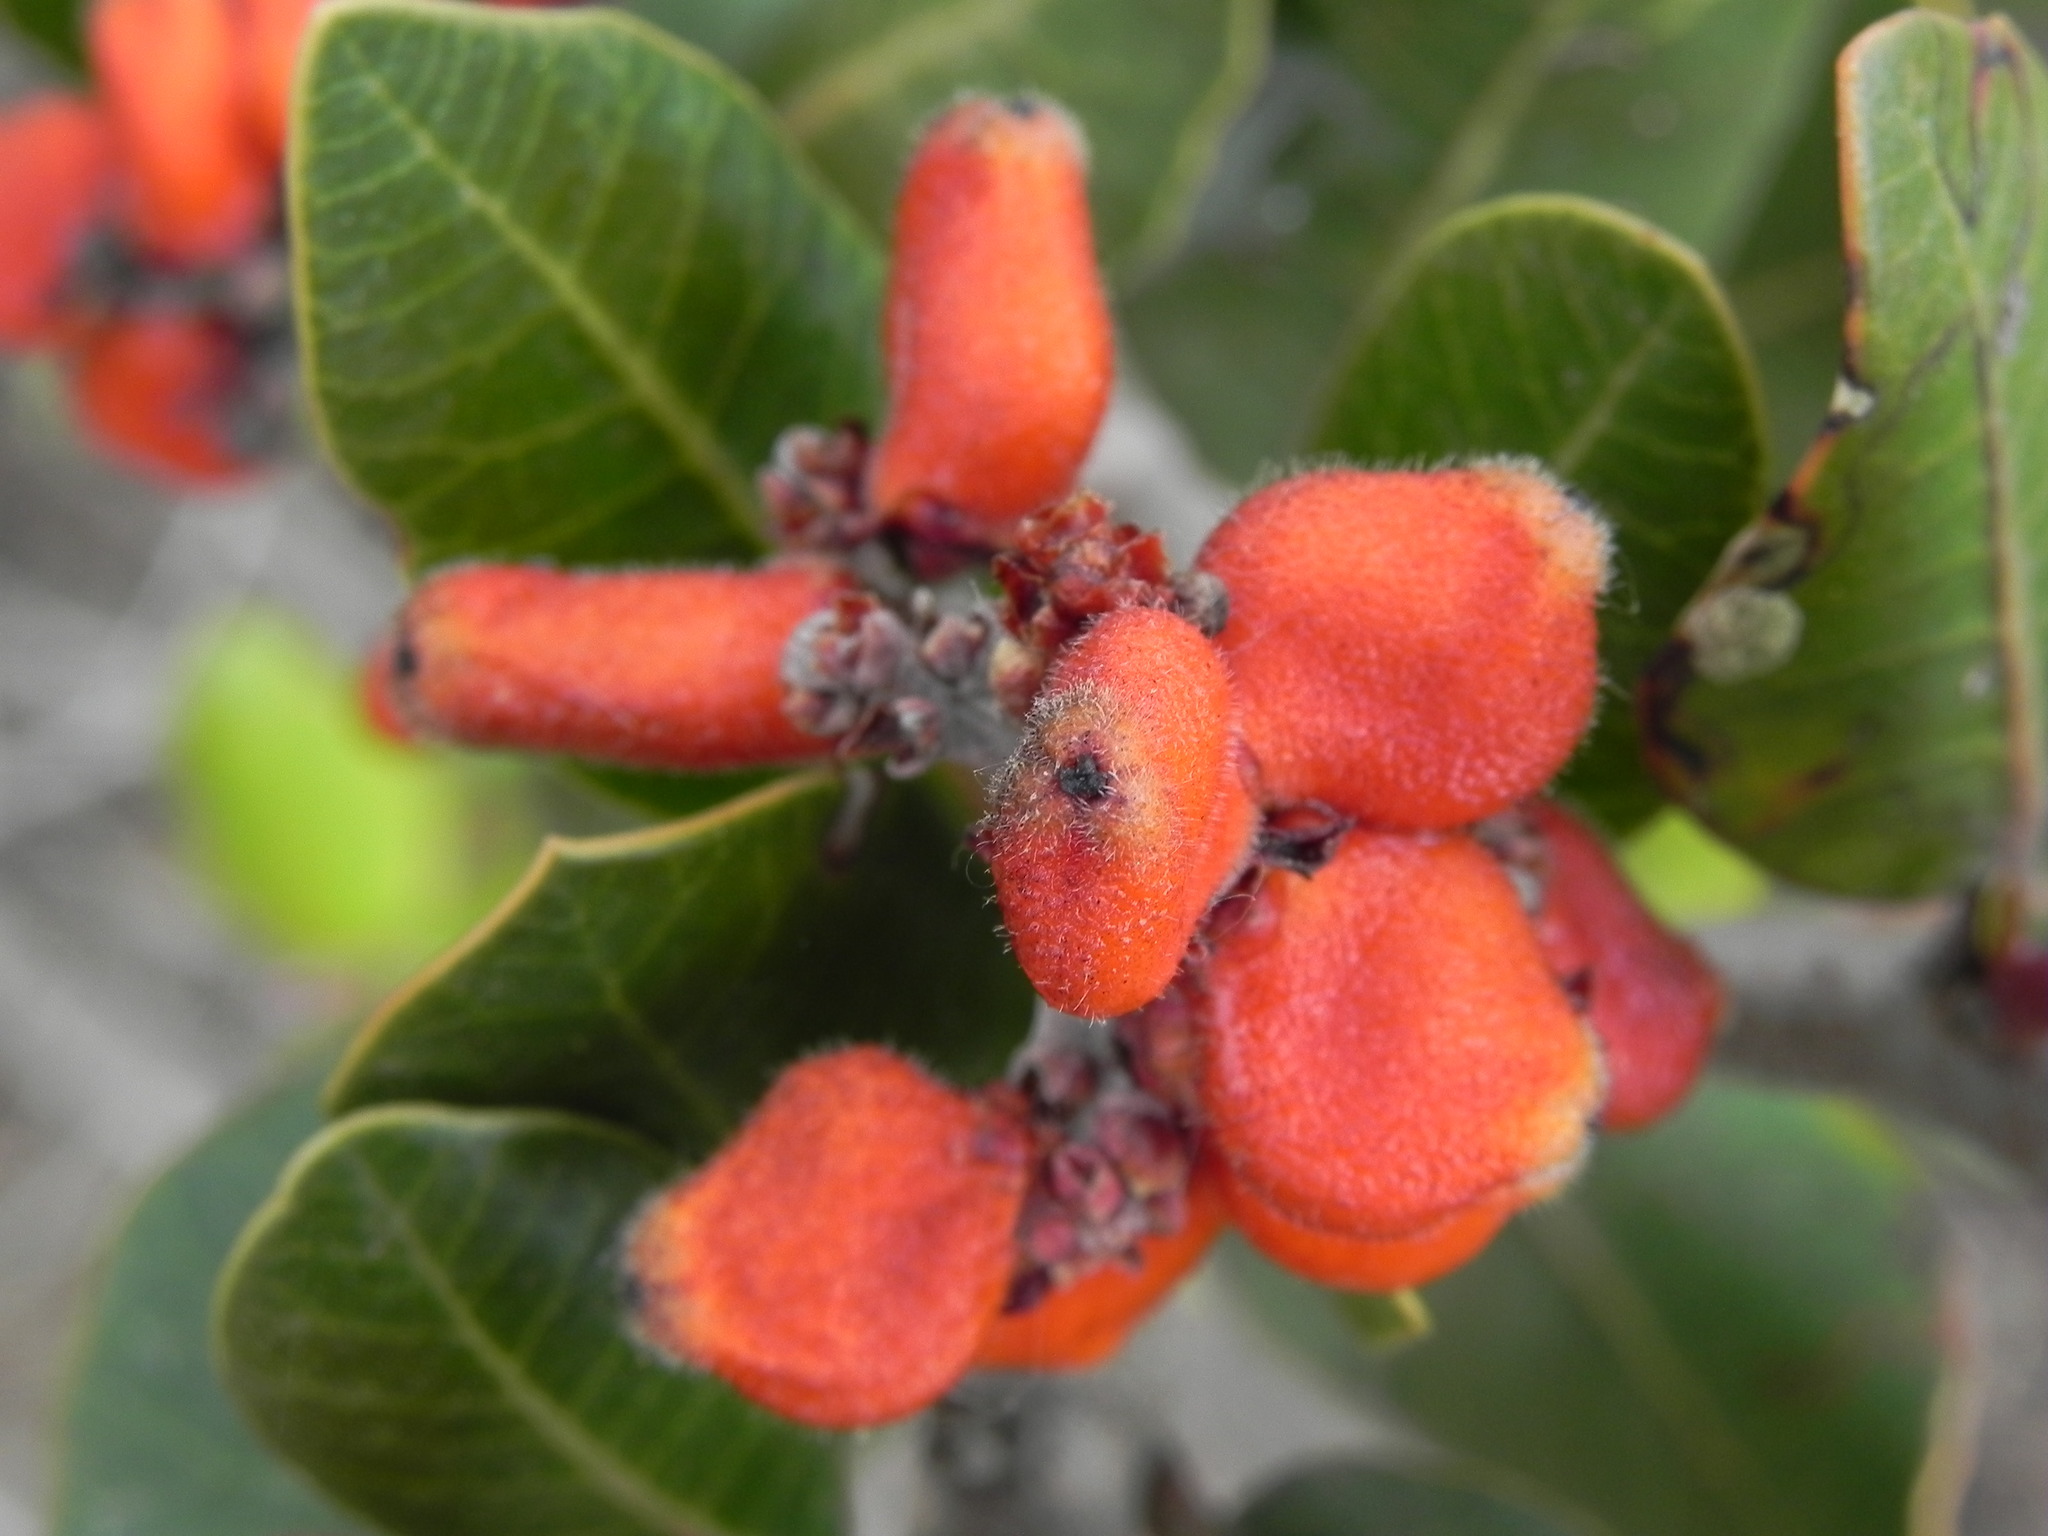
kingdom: Plantae
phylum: Tracheophyta
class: Magnoliopsida
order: Sapindales
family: Anacardiaceae
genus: Rhus
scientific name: Rhus integrifolia
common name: Lemonade sumac
